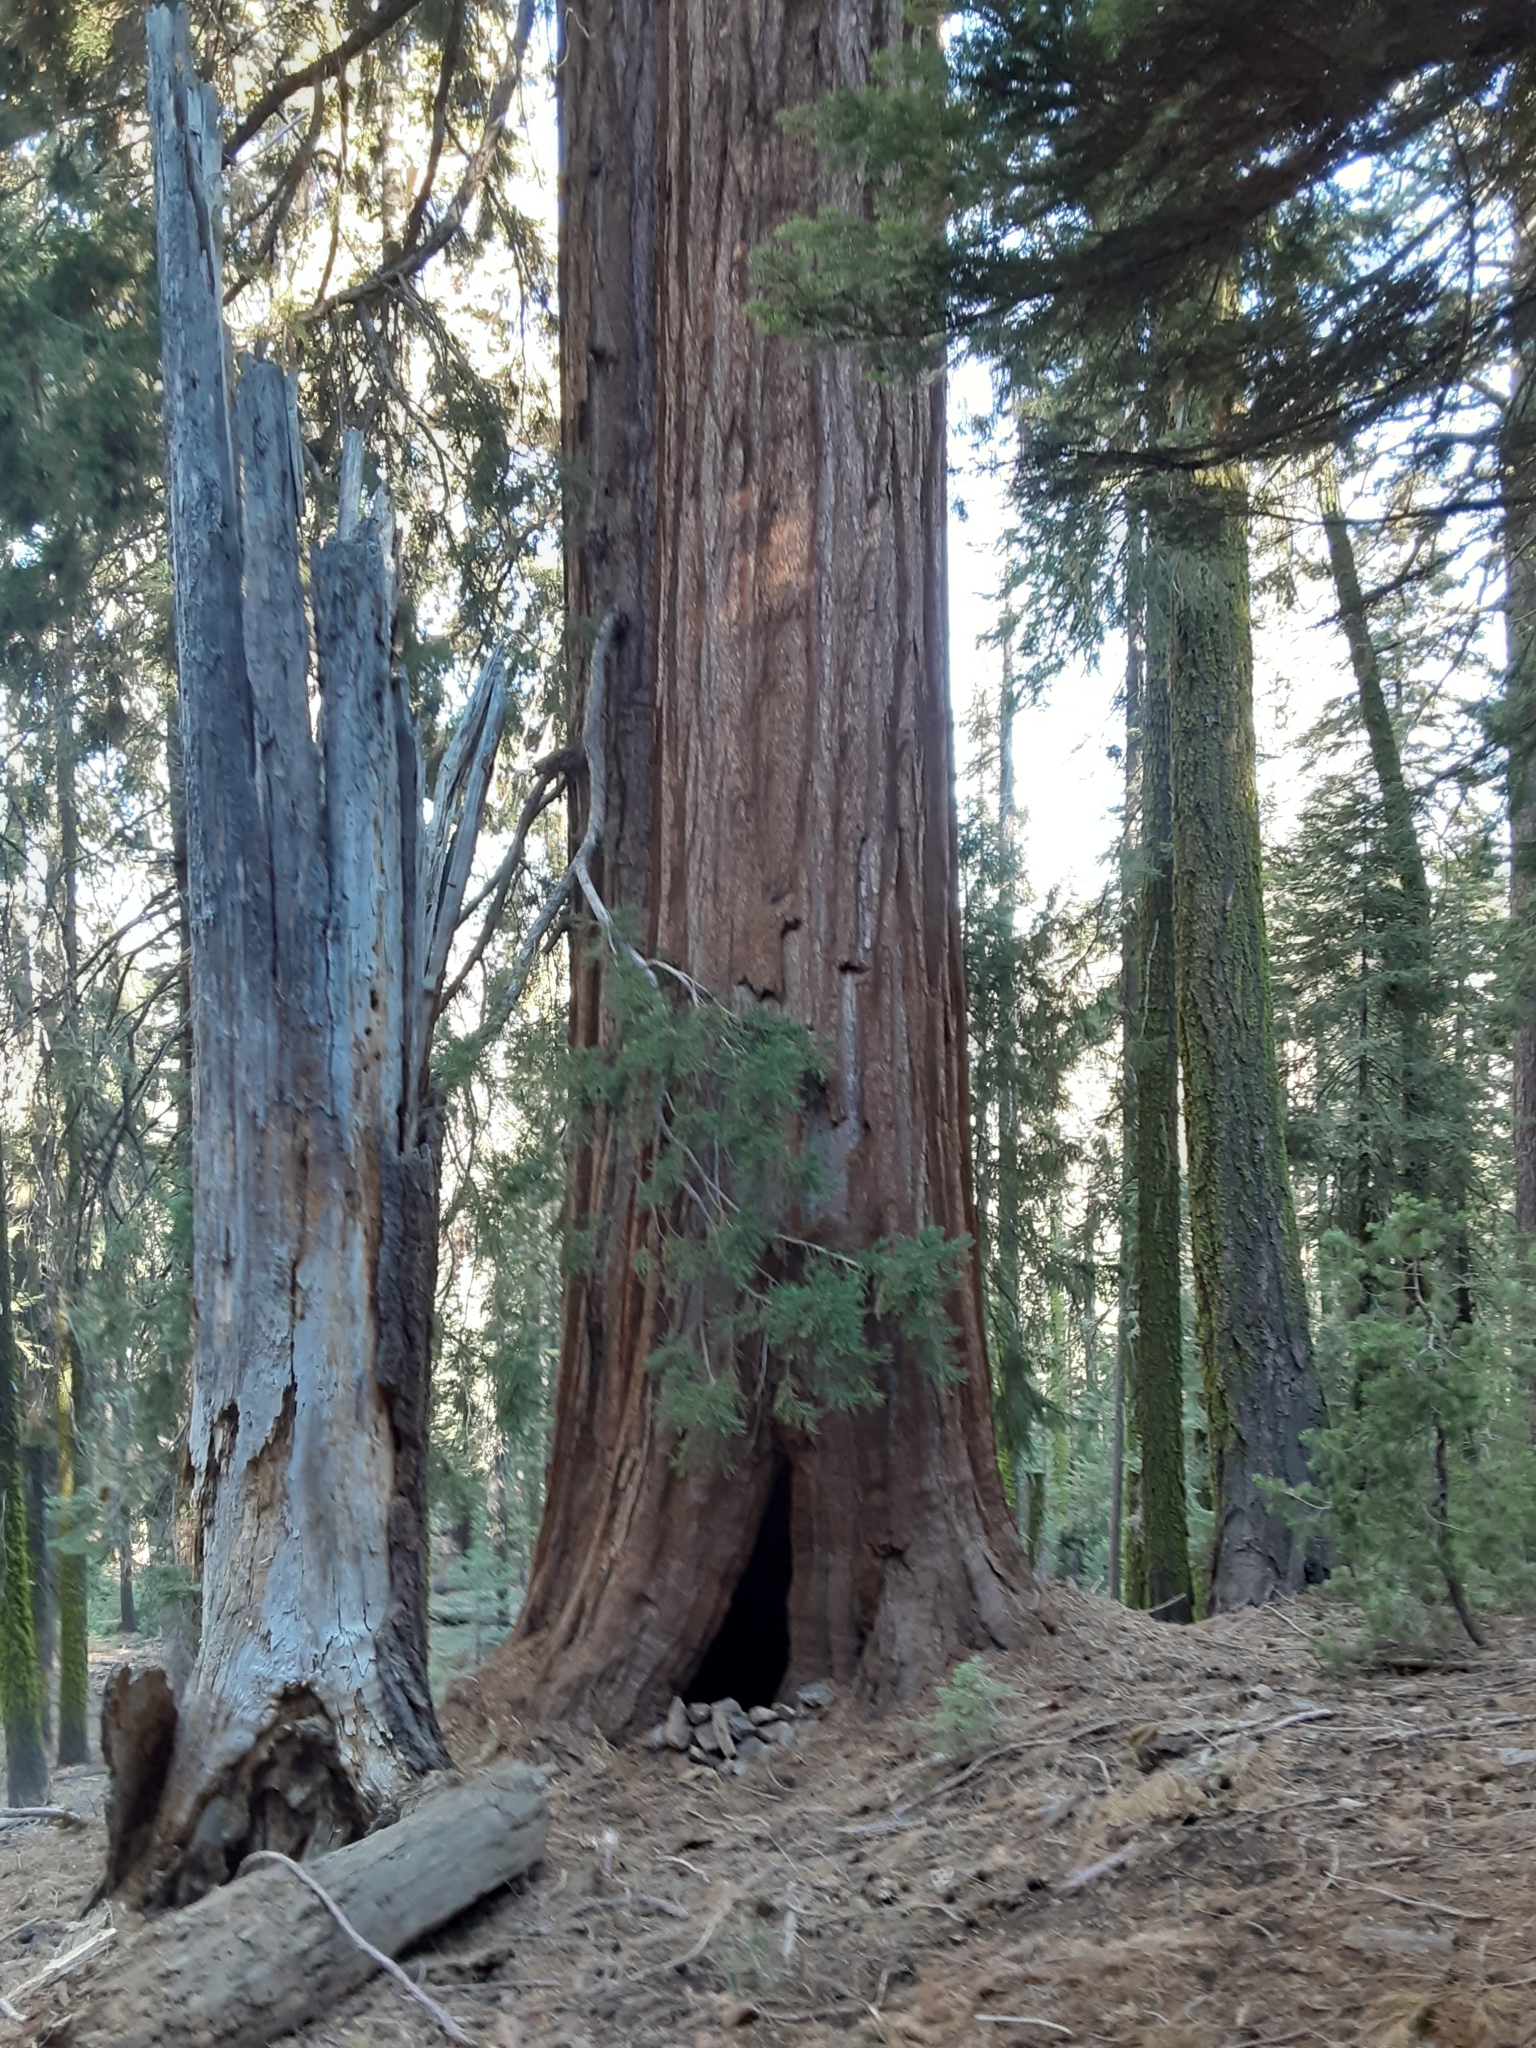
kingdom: Plantae
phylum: Tracheophyta
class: Pinopsida
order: Pinales
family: Cupressaceae
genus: Sequoiadendron
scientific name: Sequoiadendron giganteum
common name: Wellingtonia
